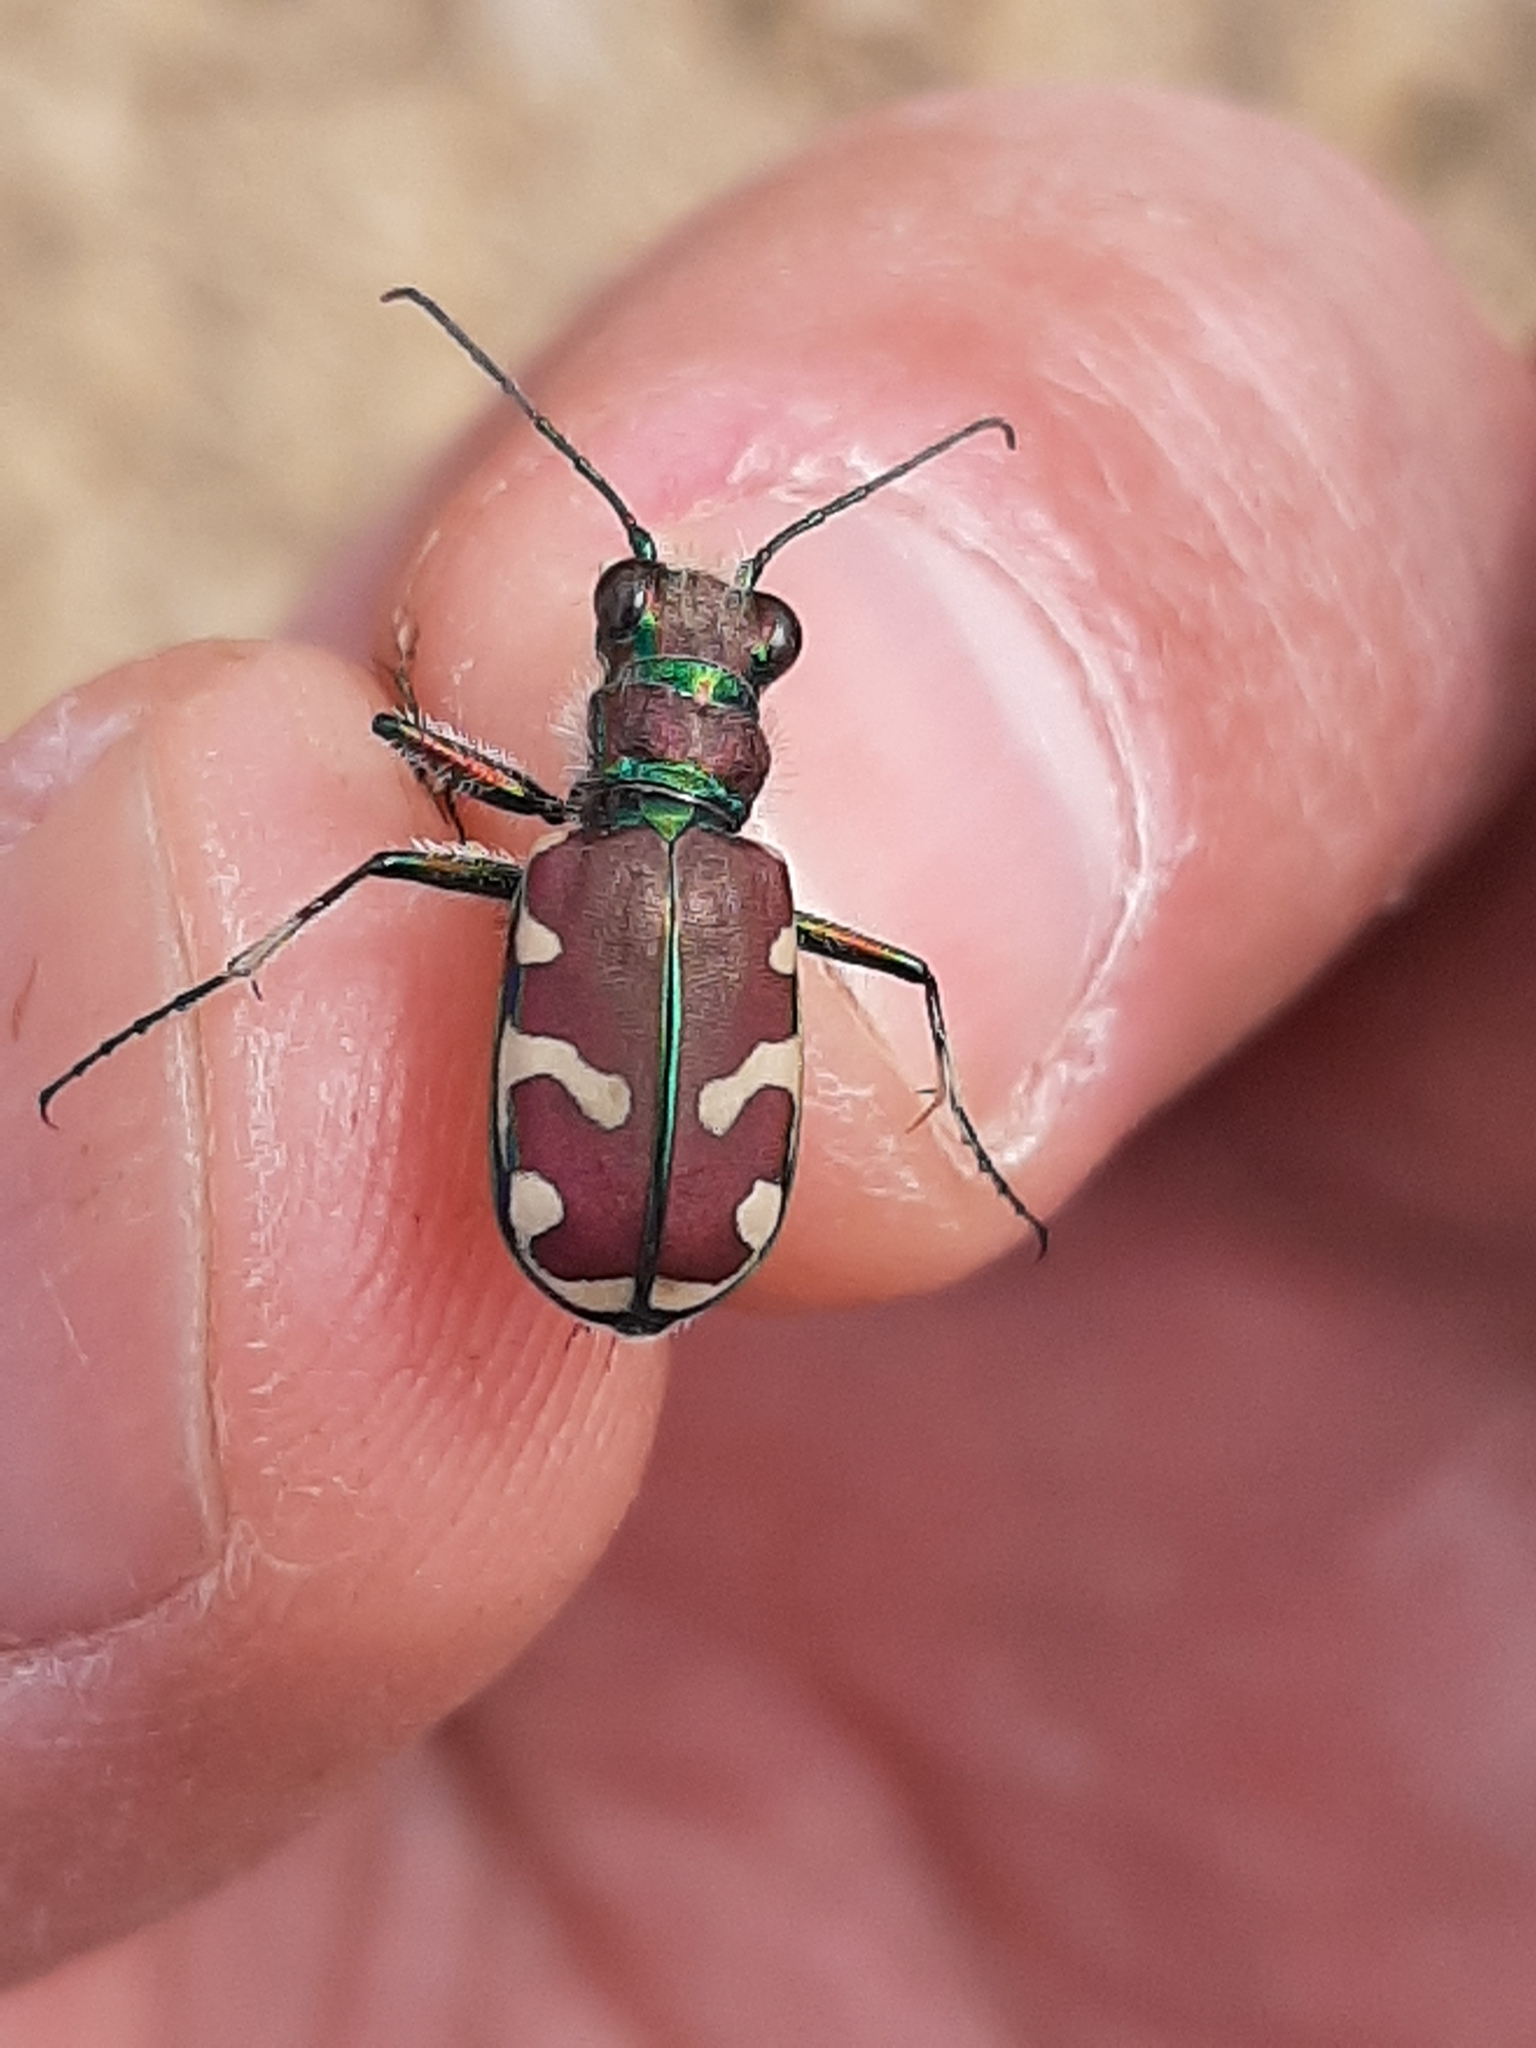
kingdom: Animalia
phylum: Arthropoda
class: Insecta
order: Coleoptera
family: Carabidae
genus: Cicindela
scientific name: Cicindela limbalis
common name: Common claybank tiger beetle
